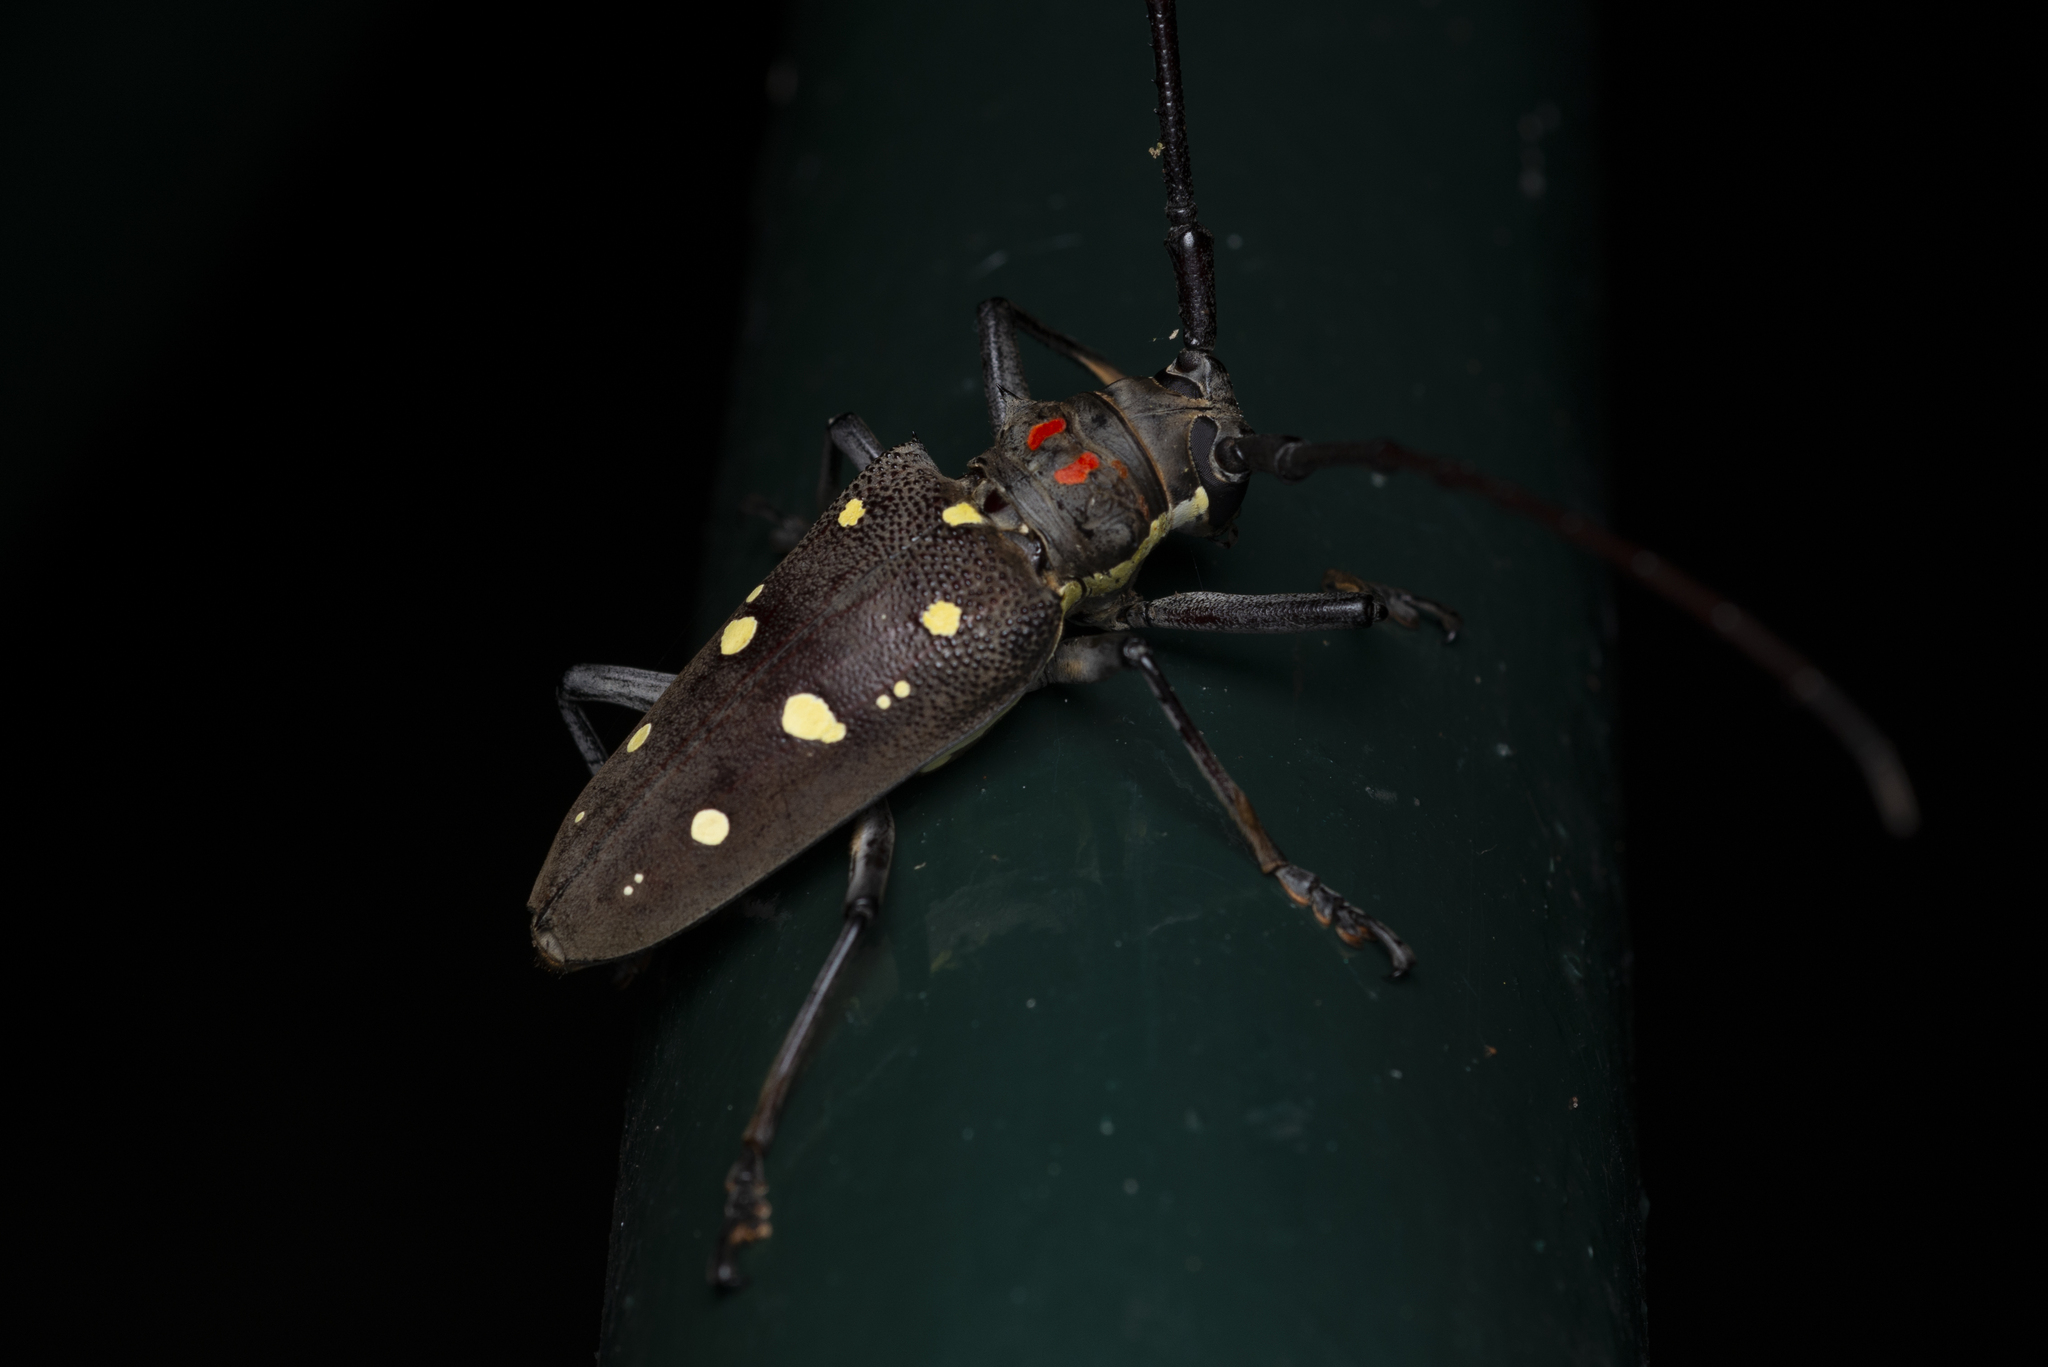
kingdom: Animalia
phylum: Arthropoda
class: Insecta
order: Coleoptera
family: Cerambycidae
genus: Batocera
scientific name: Batocera rubus
